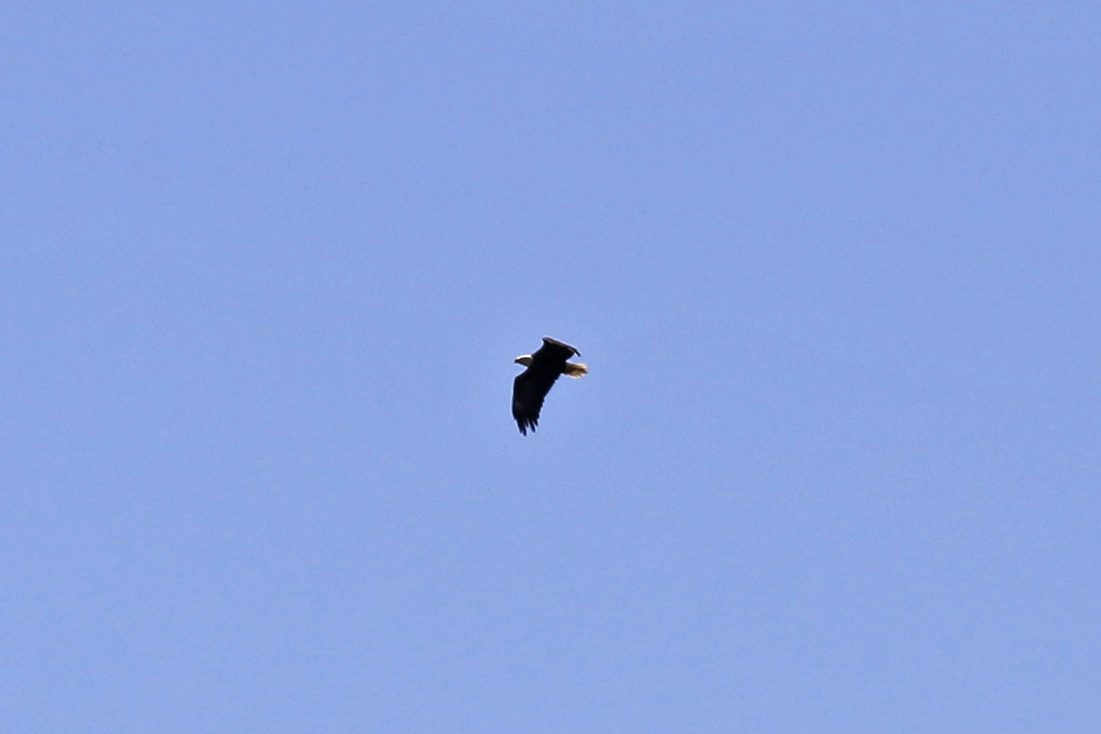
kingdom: Animalia
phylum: Chordata
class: Aves
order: Accipitriformes
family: Accipitridae
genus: Haliaeetus
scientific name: Haliaeetus leucocephalus
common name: Bald eagle
